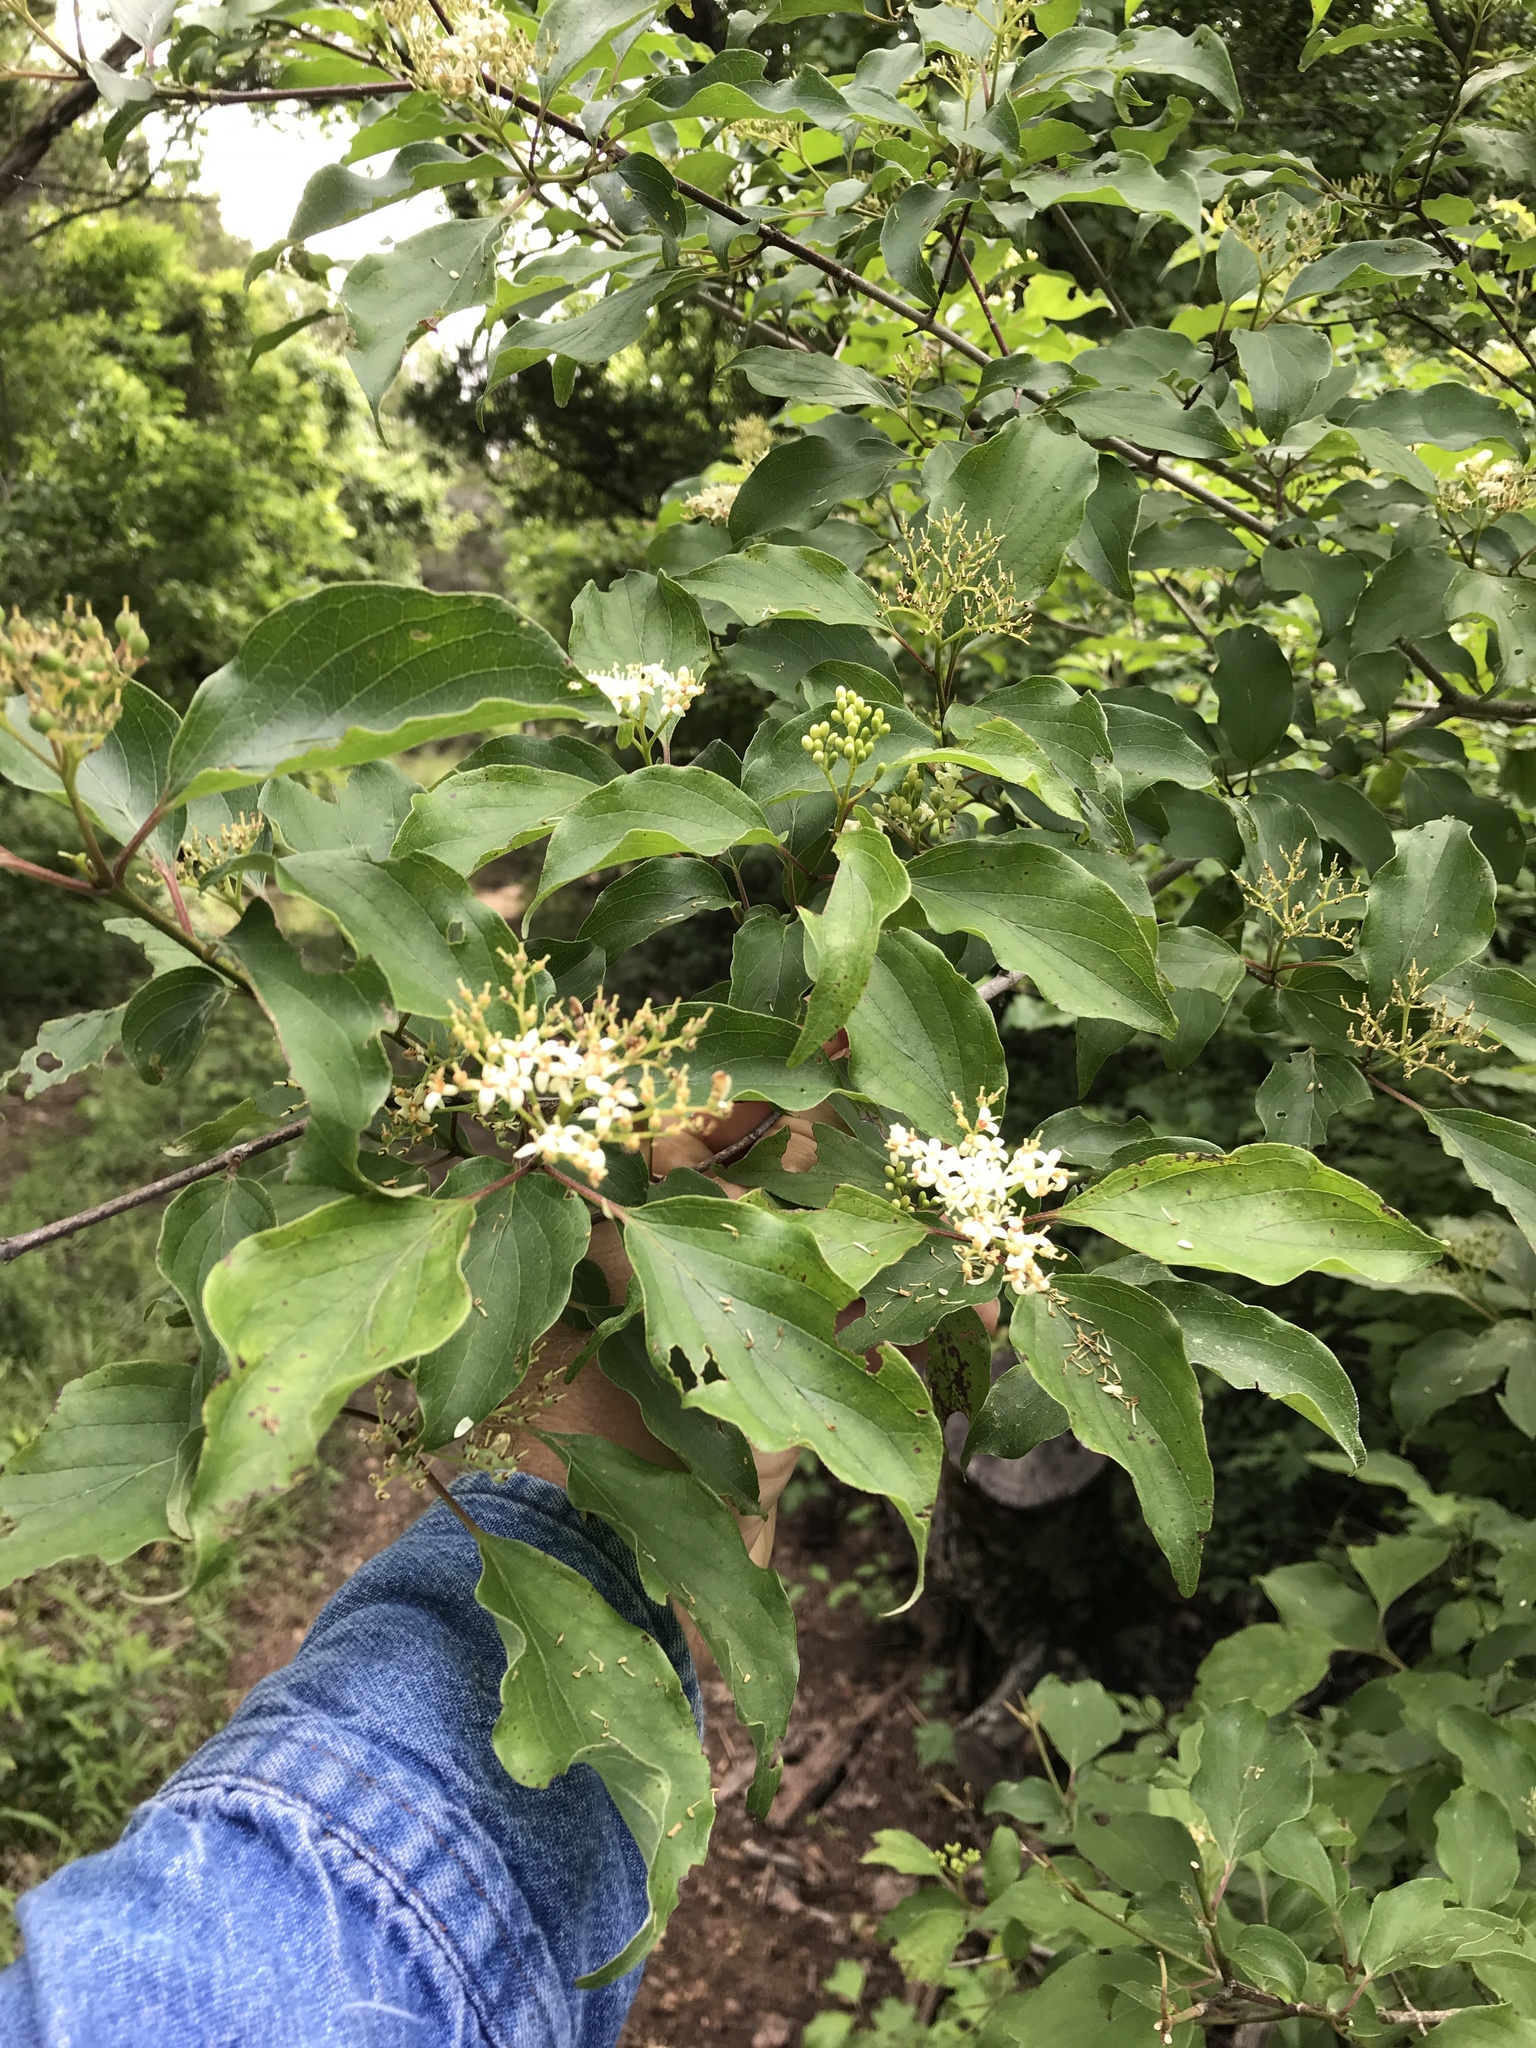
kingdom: Plantae
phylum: Tracheophyta
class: Magnoliopsida
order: Cornales
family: Cornaceae
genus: Cornus
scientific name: Cornus drummondii
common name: Rough-leaf dogwood
